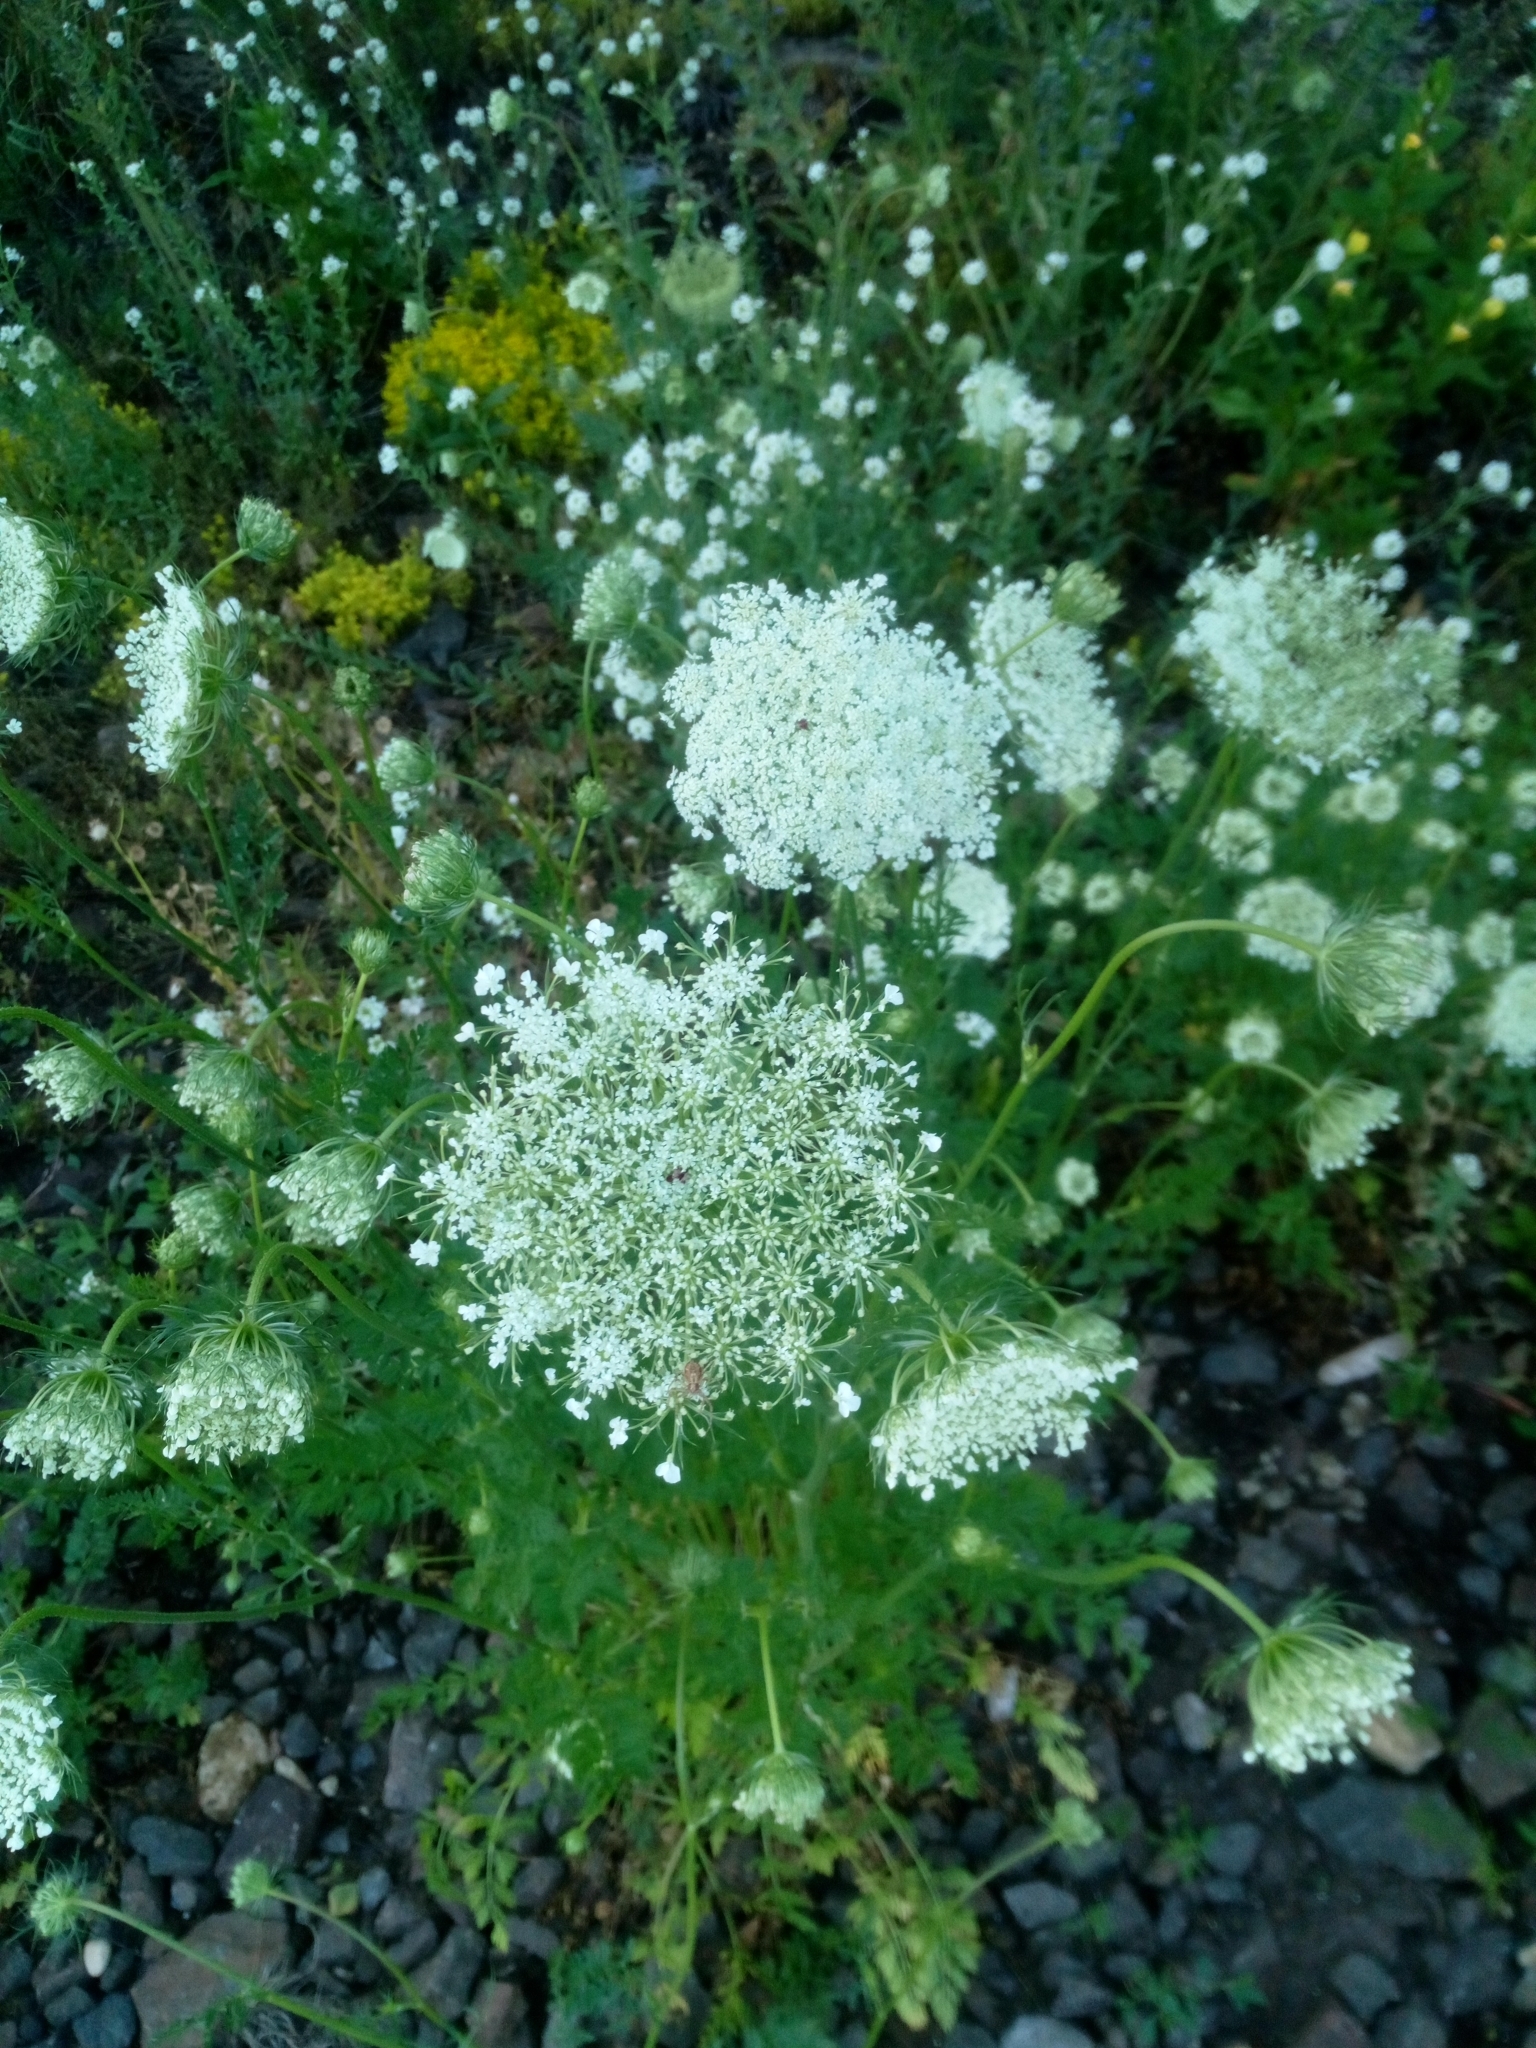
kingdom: Plantae
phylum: Tracheophyta
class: Magnoliopsida
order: Apiales
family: Apiaceae
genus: Daucus
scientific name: Daucus carota
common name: Wild carrot
